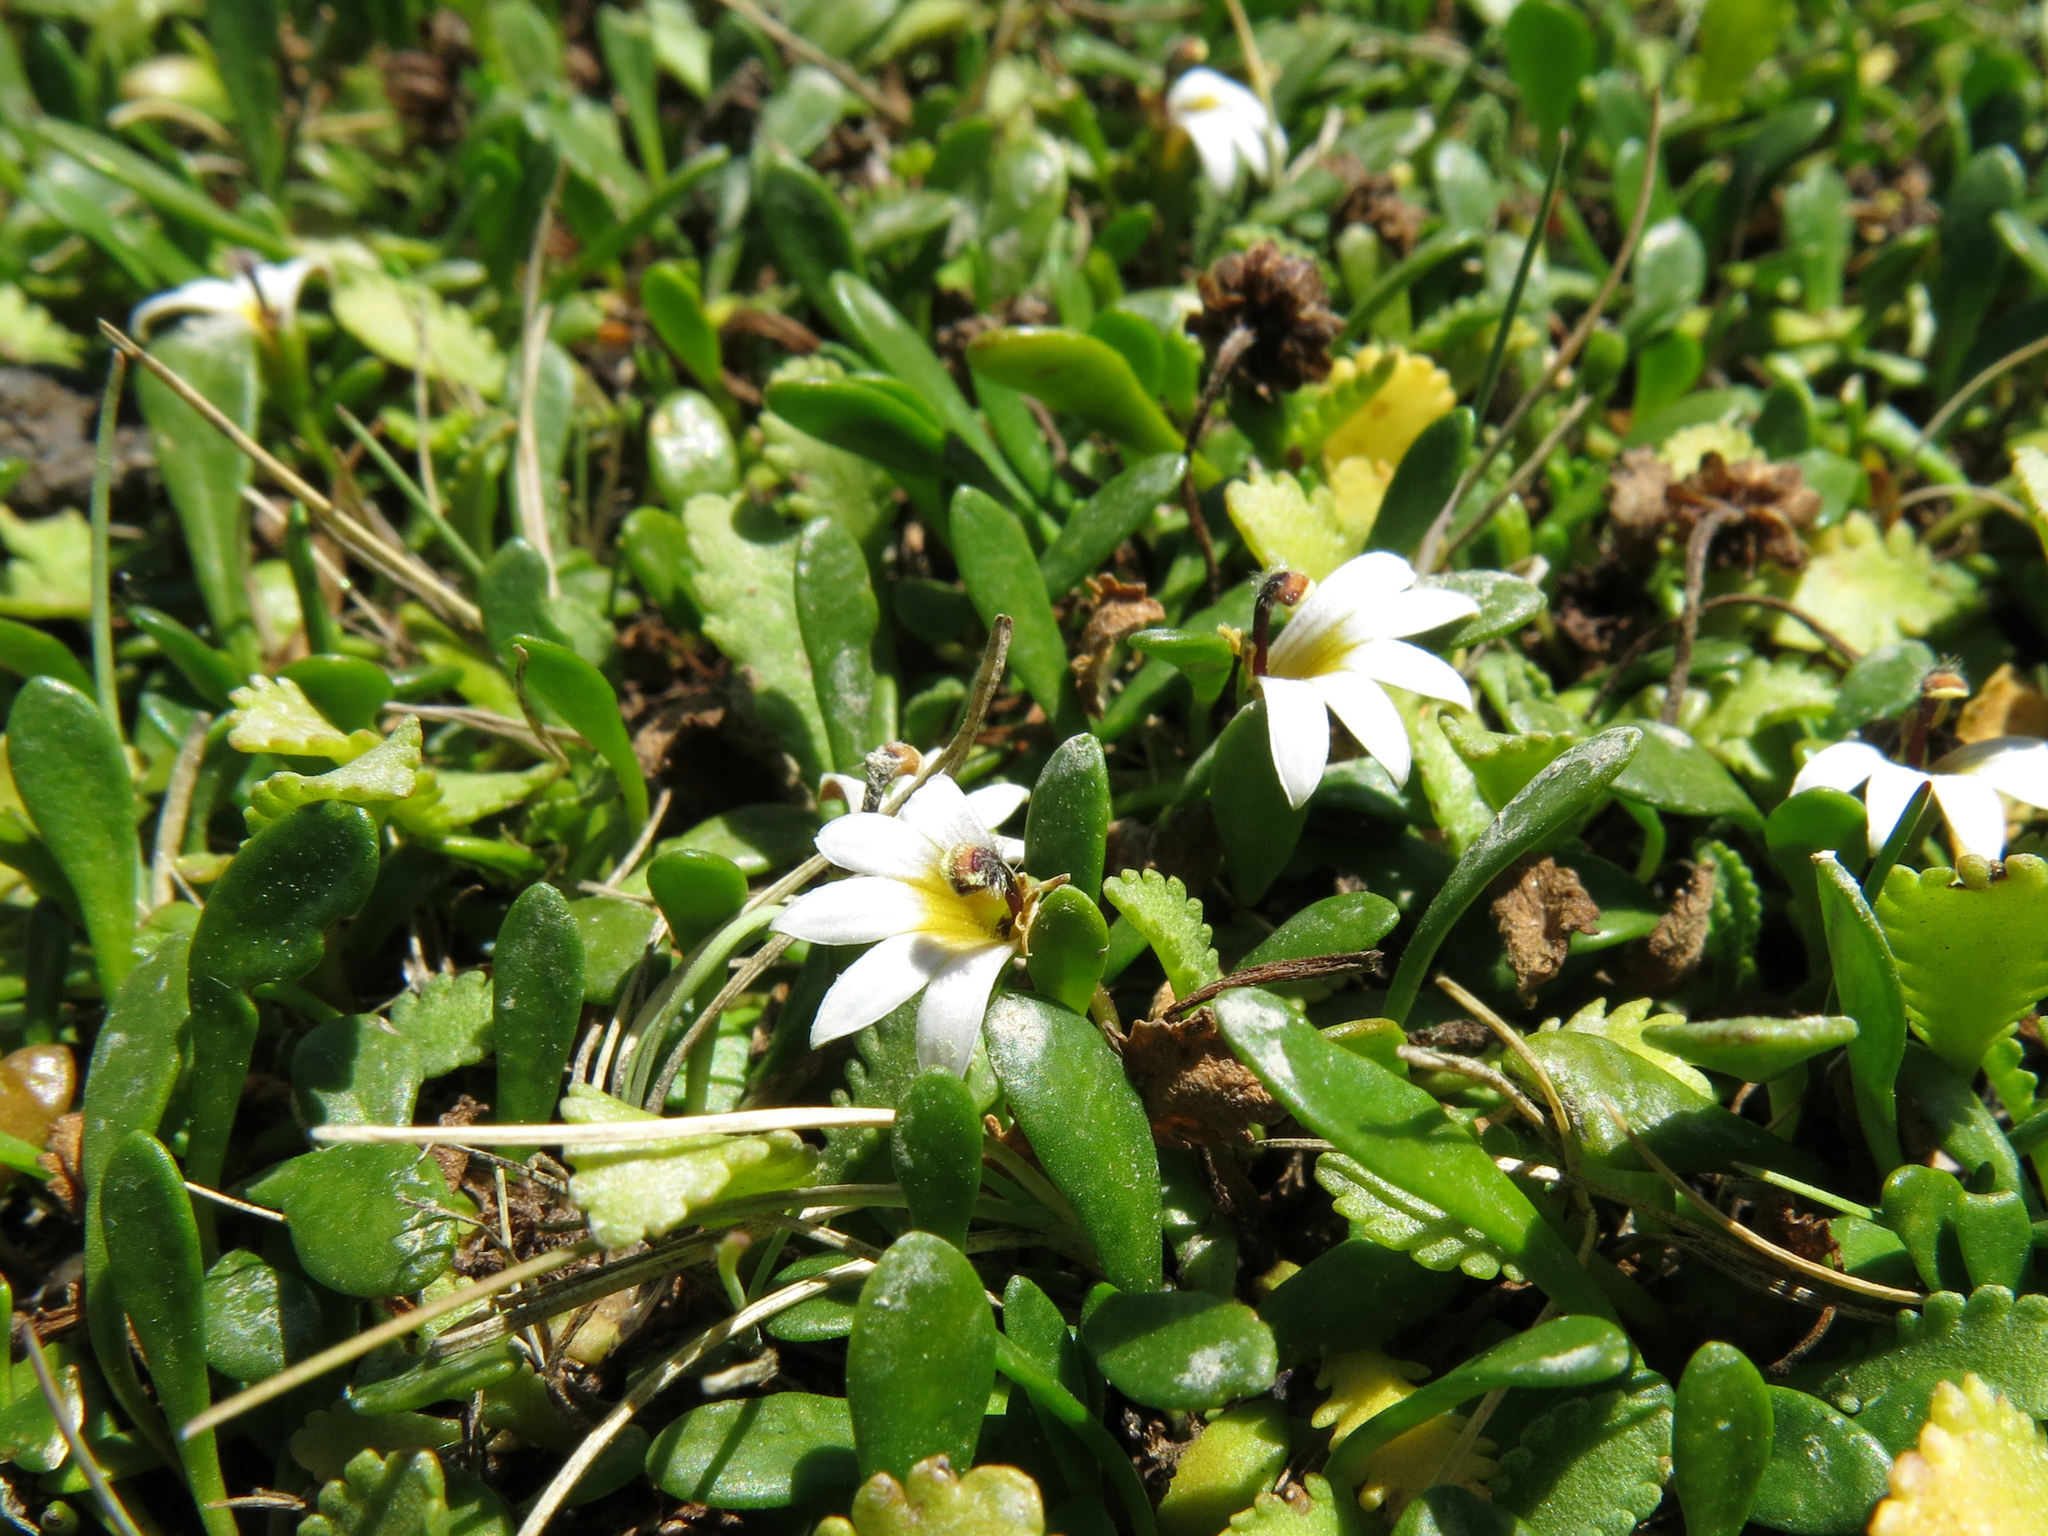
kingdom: Plantae
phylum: Tracheophyta
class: Magnoliopsida
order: Asterales
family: Goodeniaceae
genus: Goodenia
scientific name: Goodenia radicans
